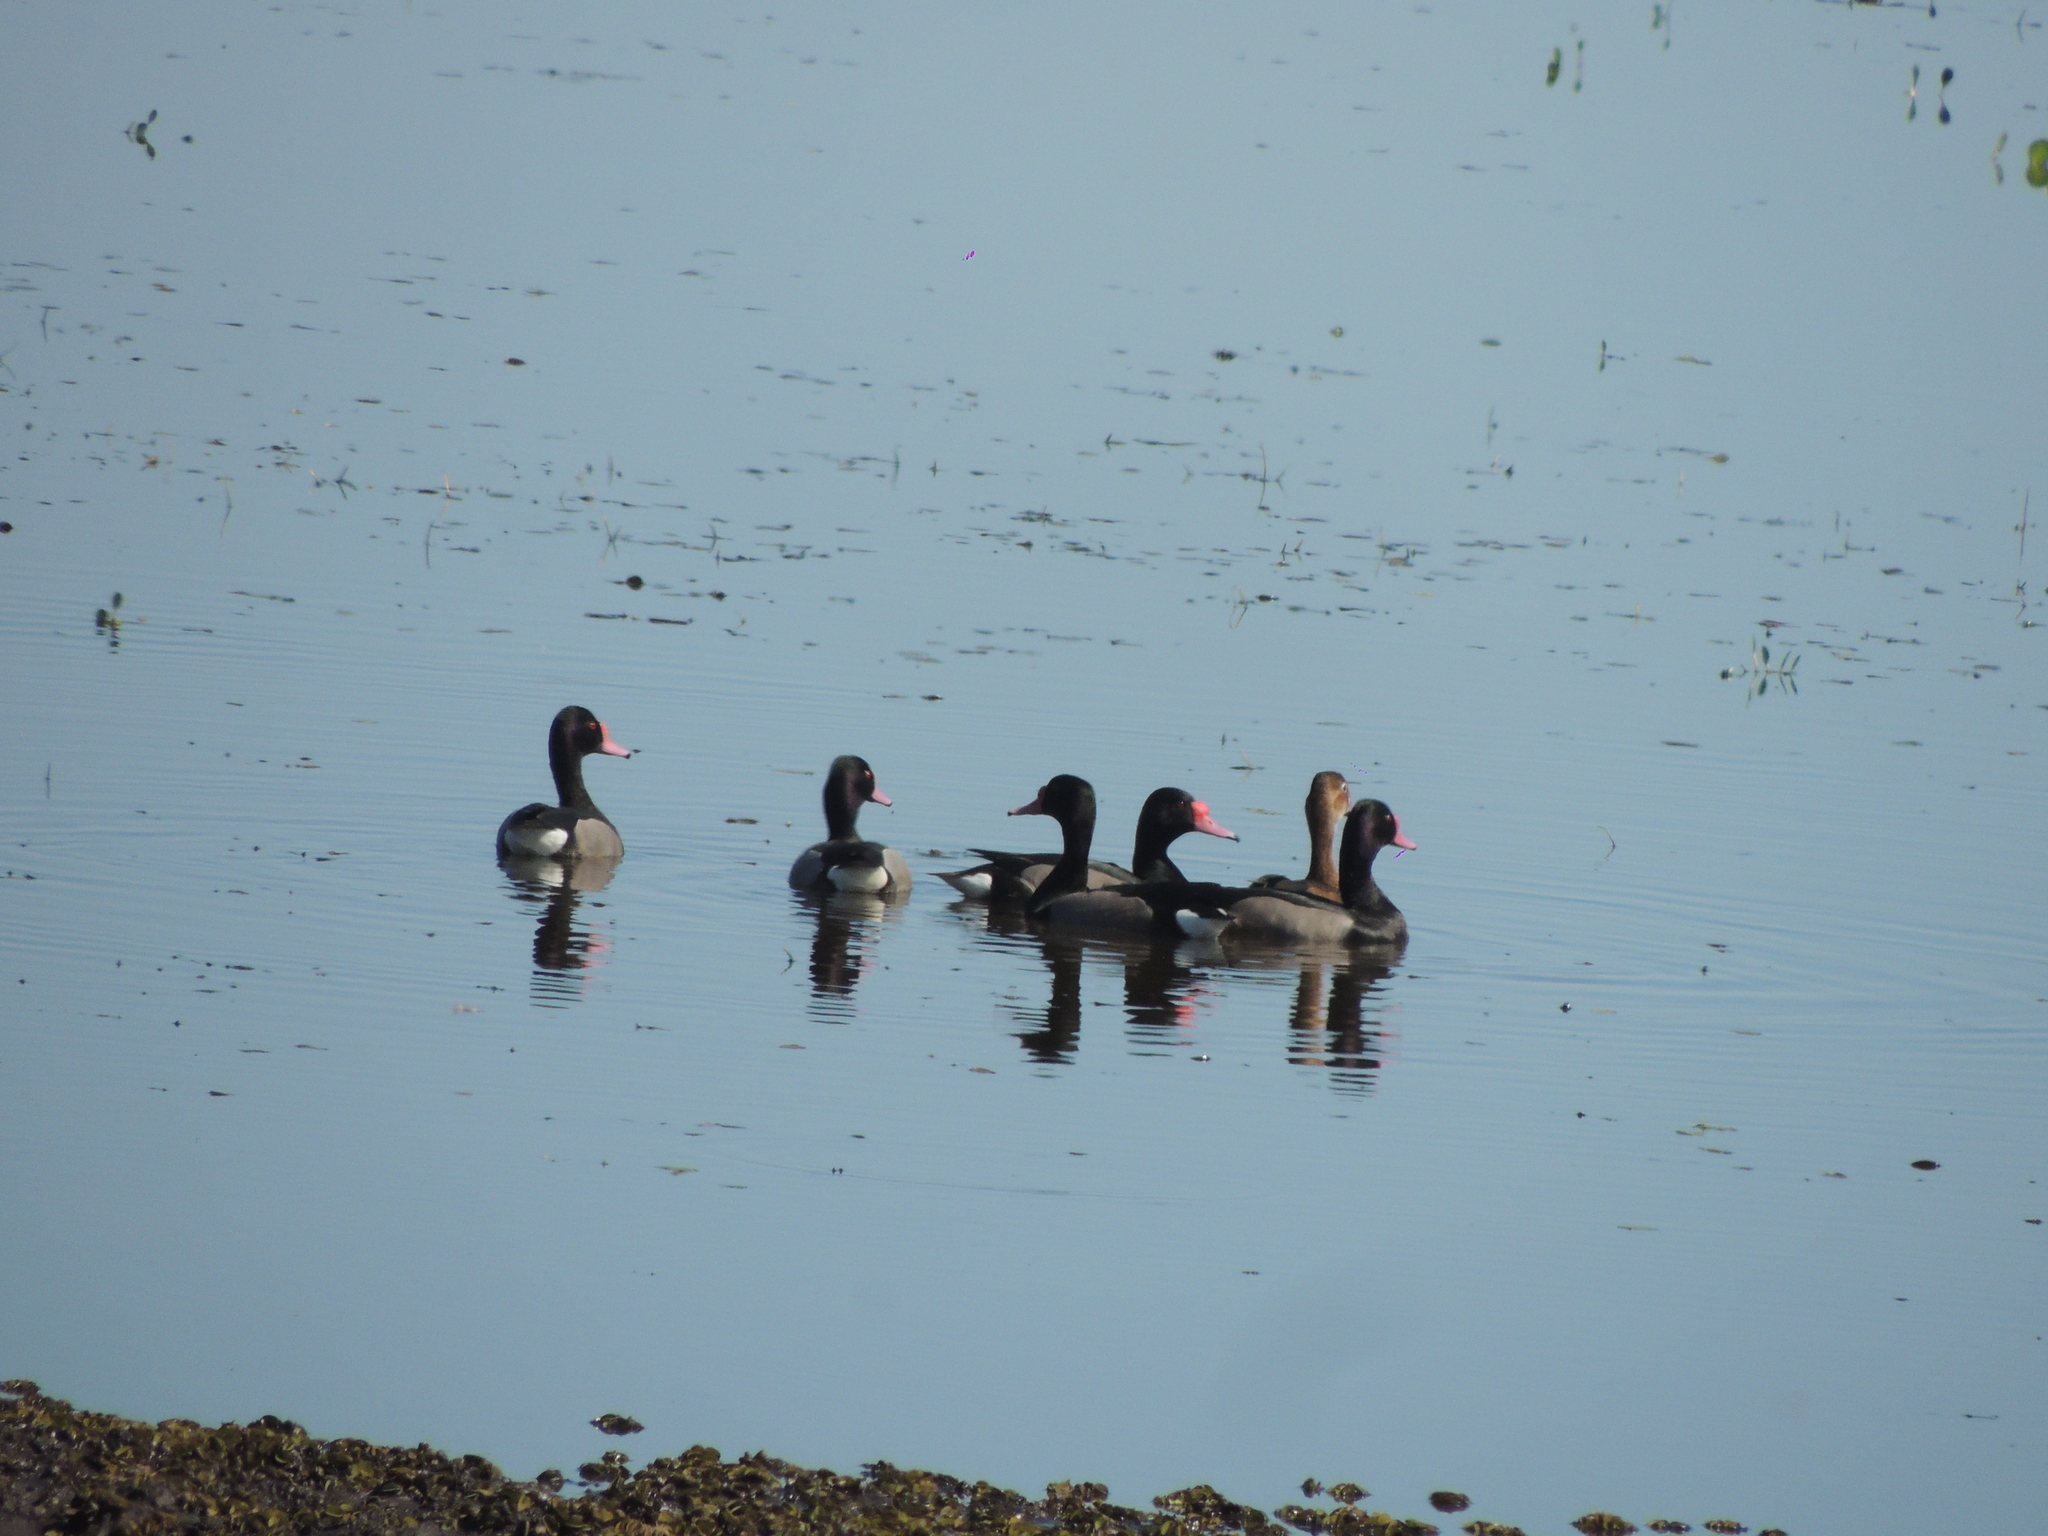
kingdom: Animalia
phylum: Chordata
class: Aves
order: Anseriformes
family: Anatidae
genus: Netta
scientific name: Netta peposaca
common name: Rosy-billed pochard
